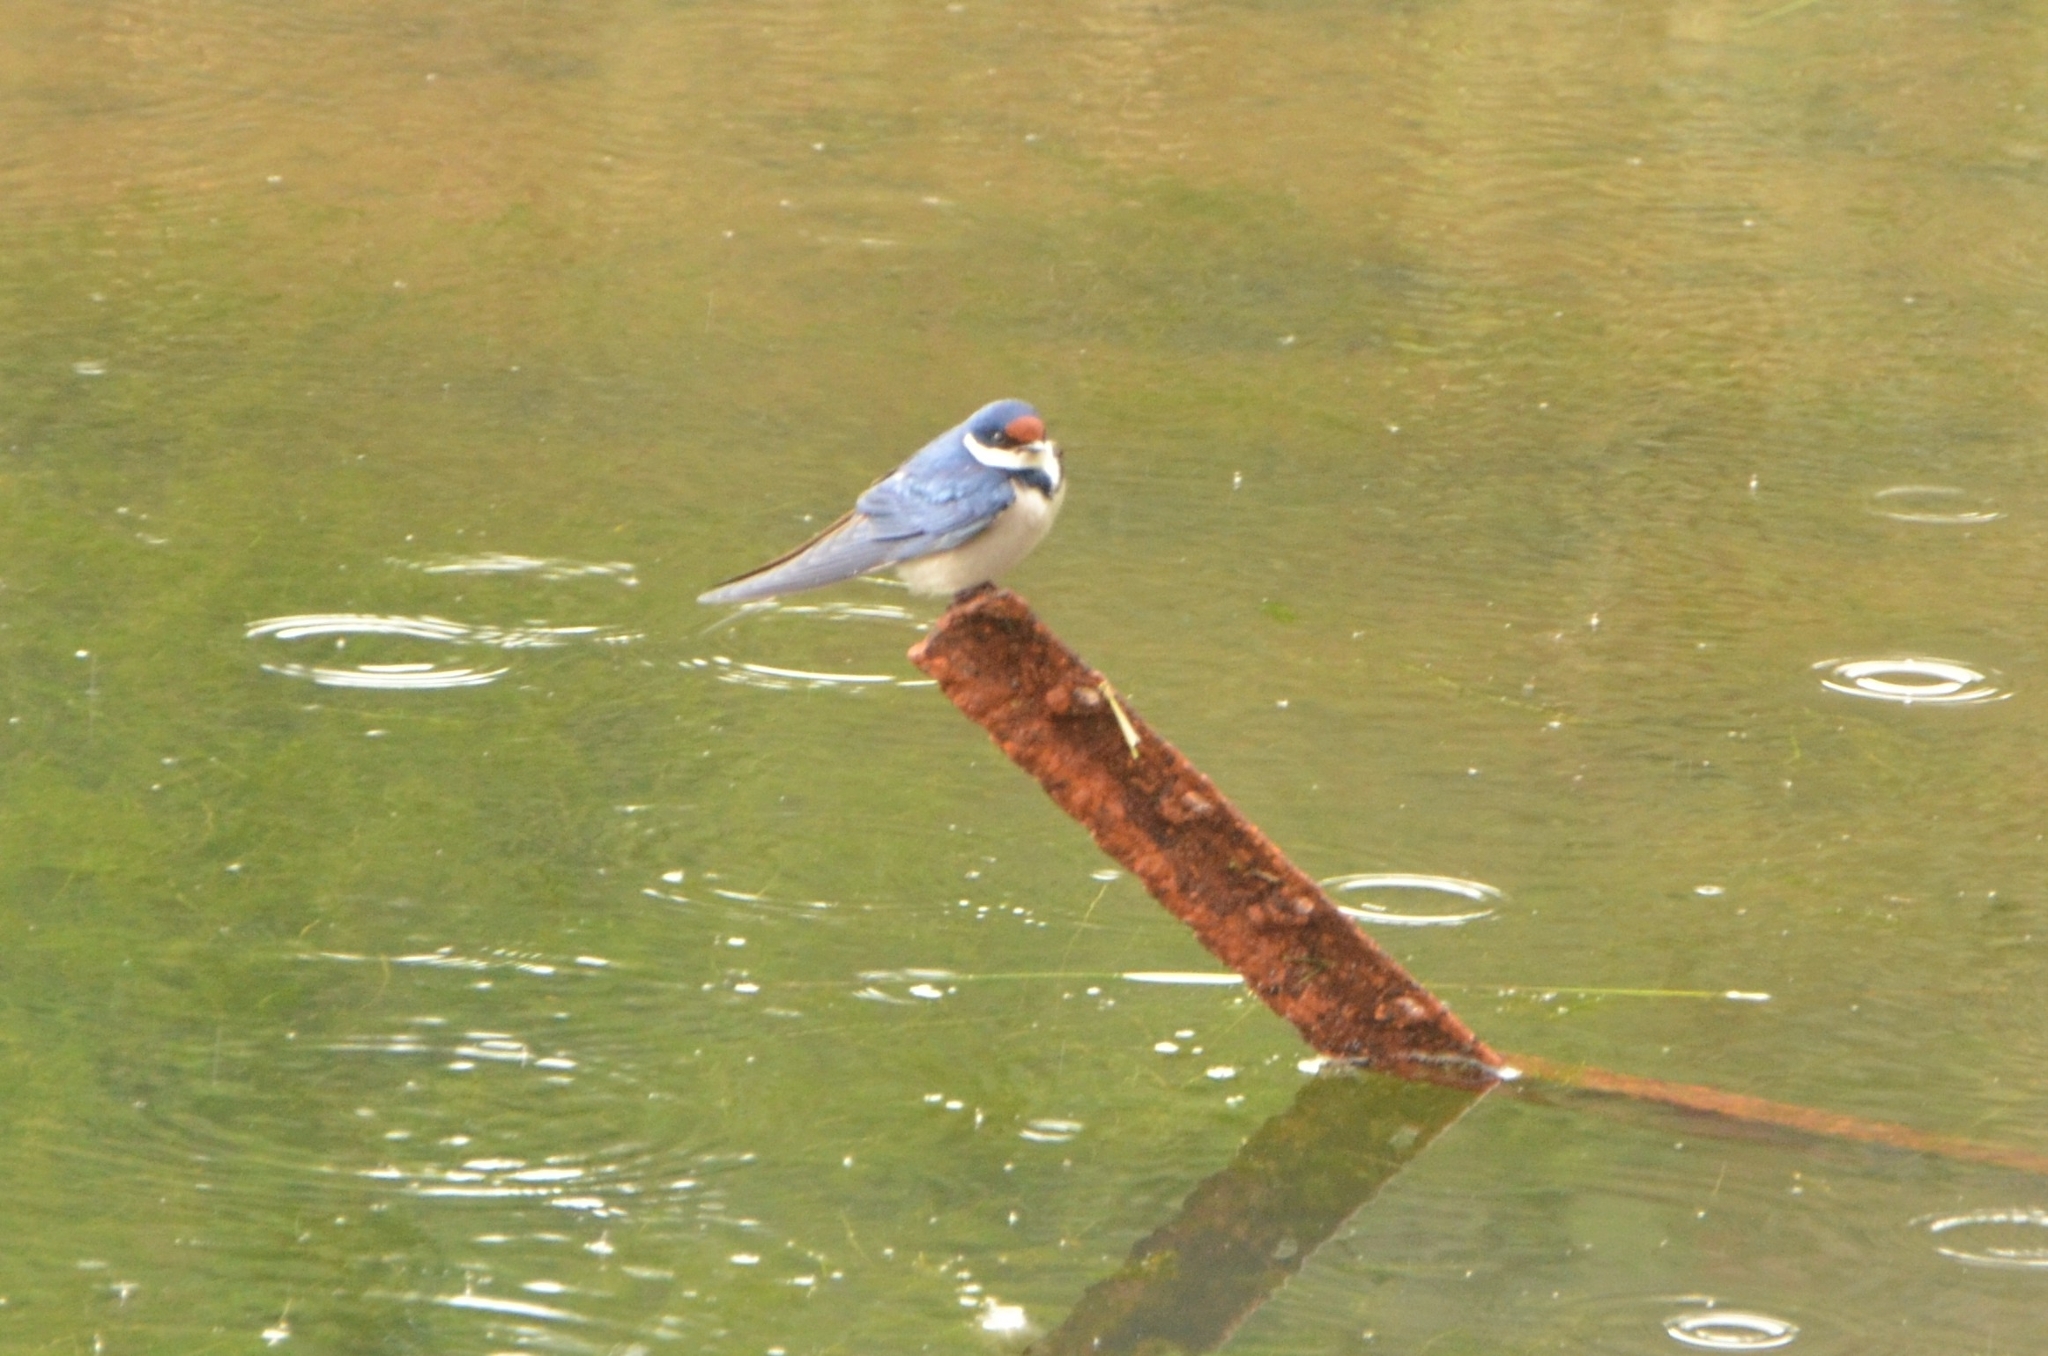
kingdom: Animalia
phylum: Chordata
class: Aves
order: Passeriformes
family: Hirundinidae
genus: Hirundo
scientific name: Hirundo albigularis
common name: White-throated swallow
